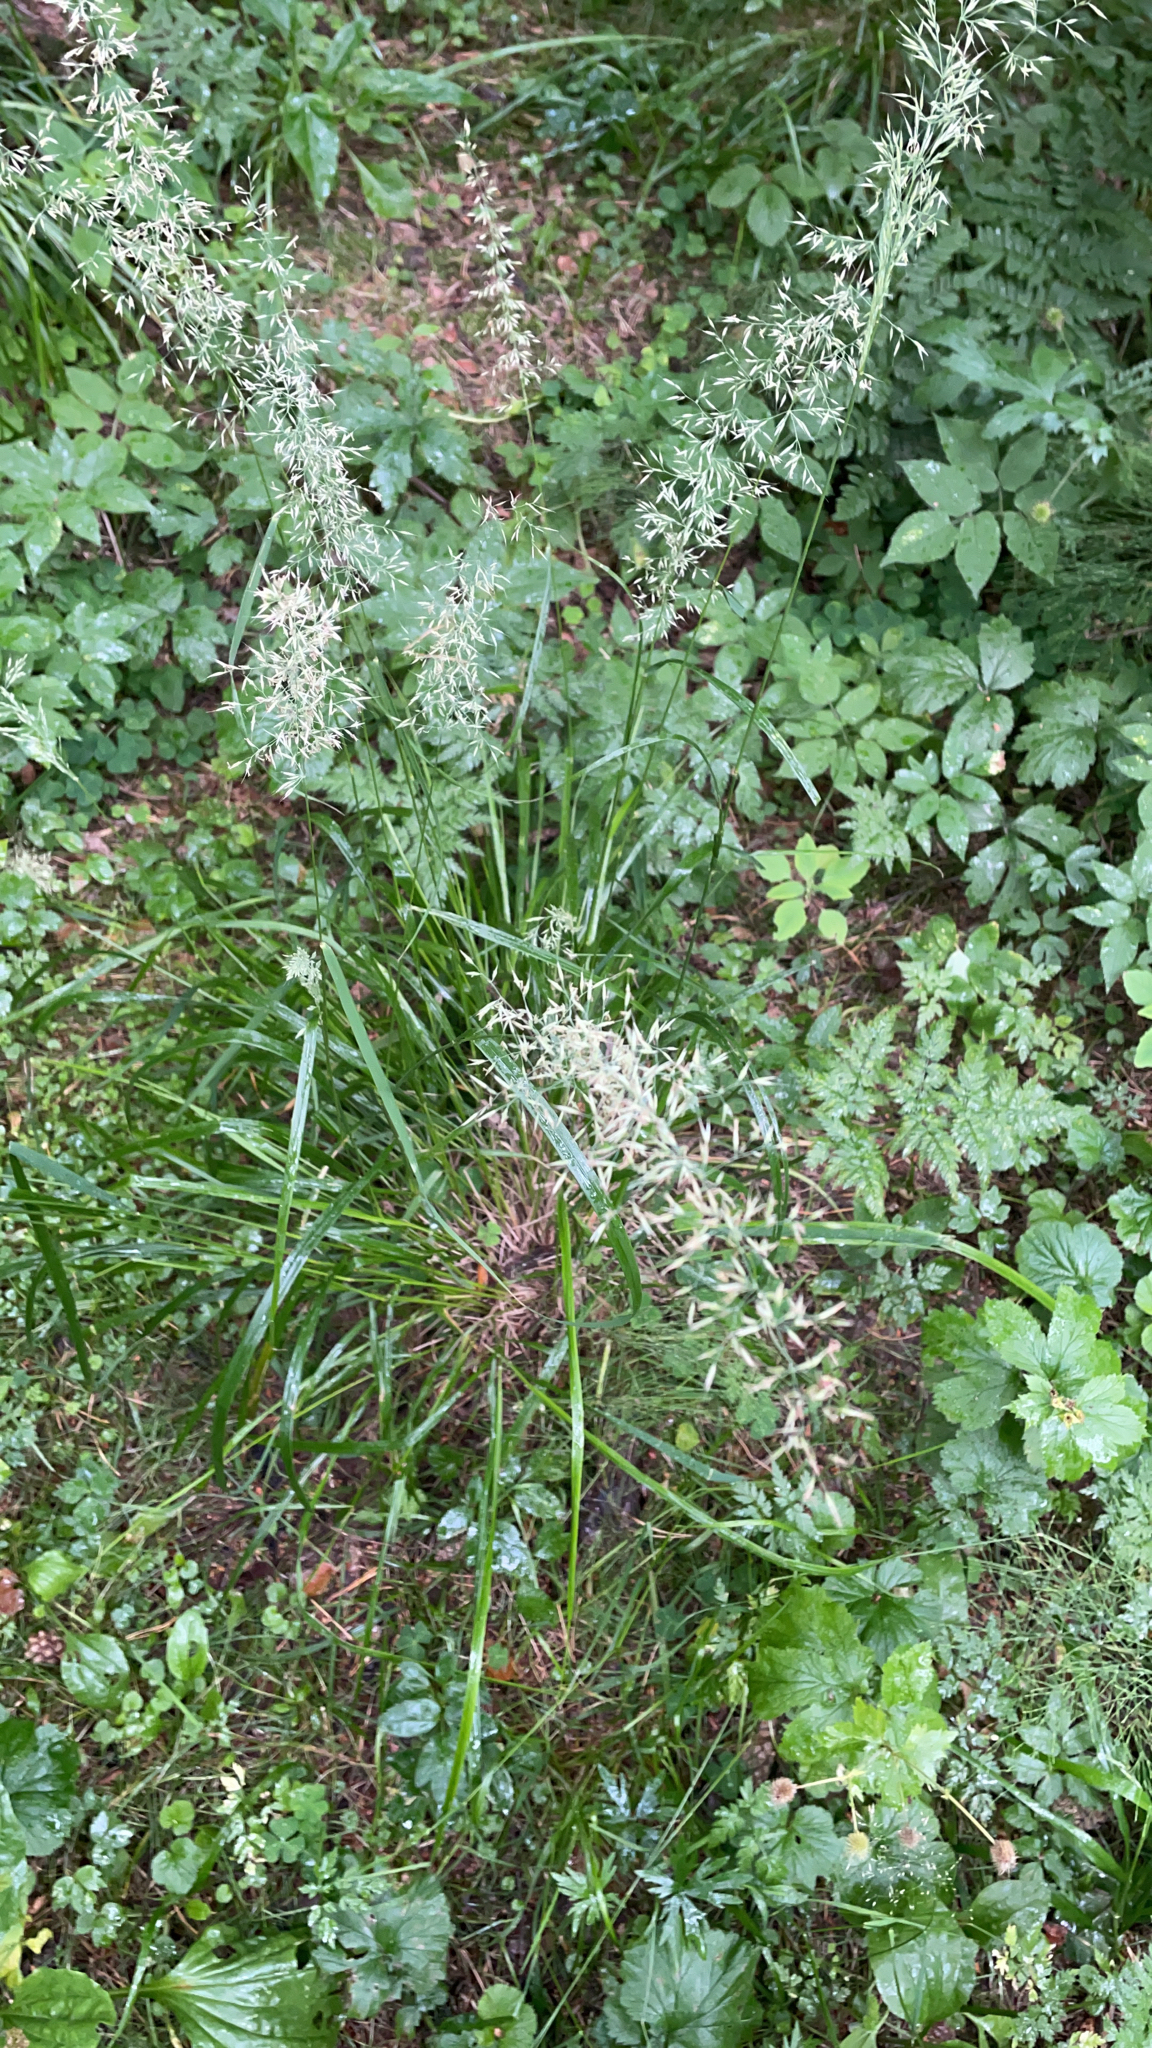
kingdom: Plantae
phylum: Tracheophyta
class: Liliopsida
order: Poales
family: Poaceae
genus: Calamagrostis
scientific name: Calamagrostis arundinacea
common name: Metskastik
